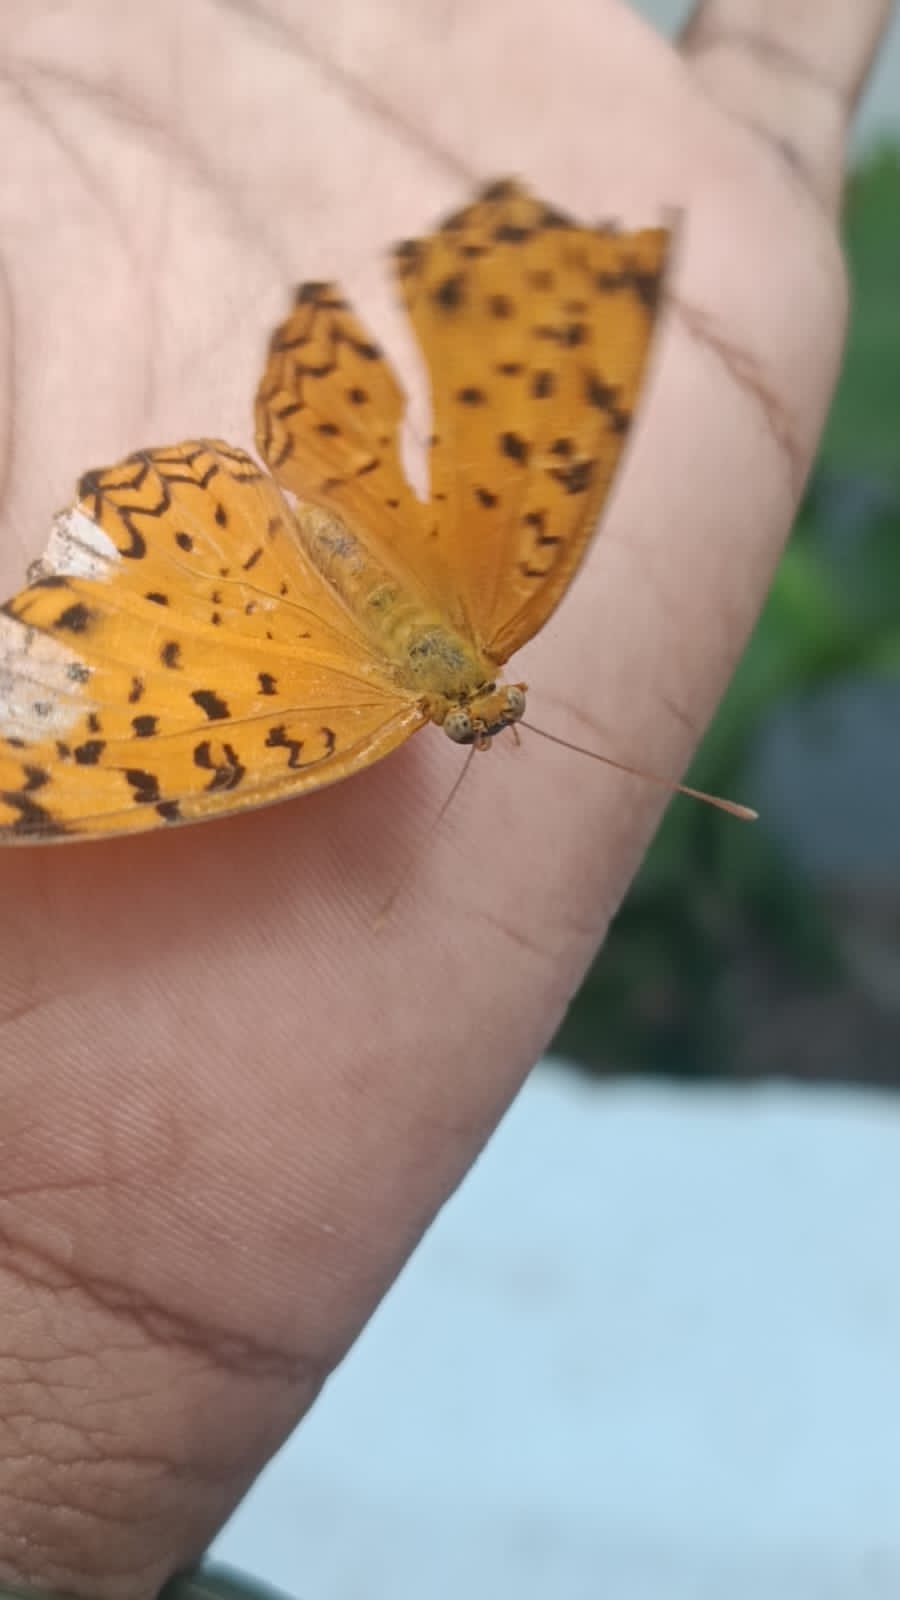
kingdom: Animalia
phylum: Arthropoda
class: Insecta
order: Lepidoptera
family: Nymphalidae
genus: Phalanta
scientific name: Phalanta phalantha
